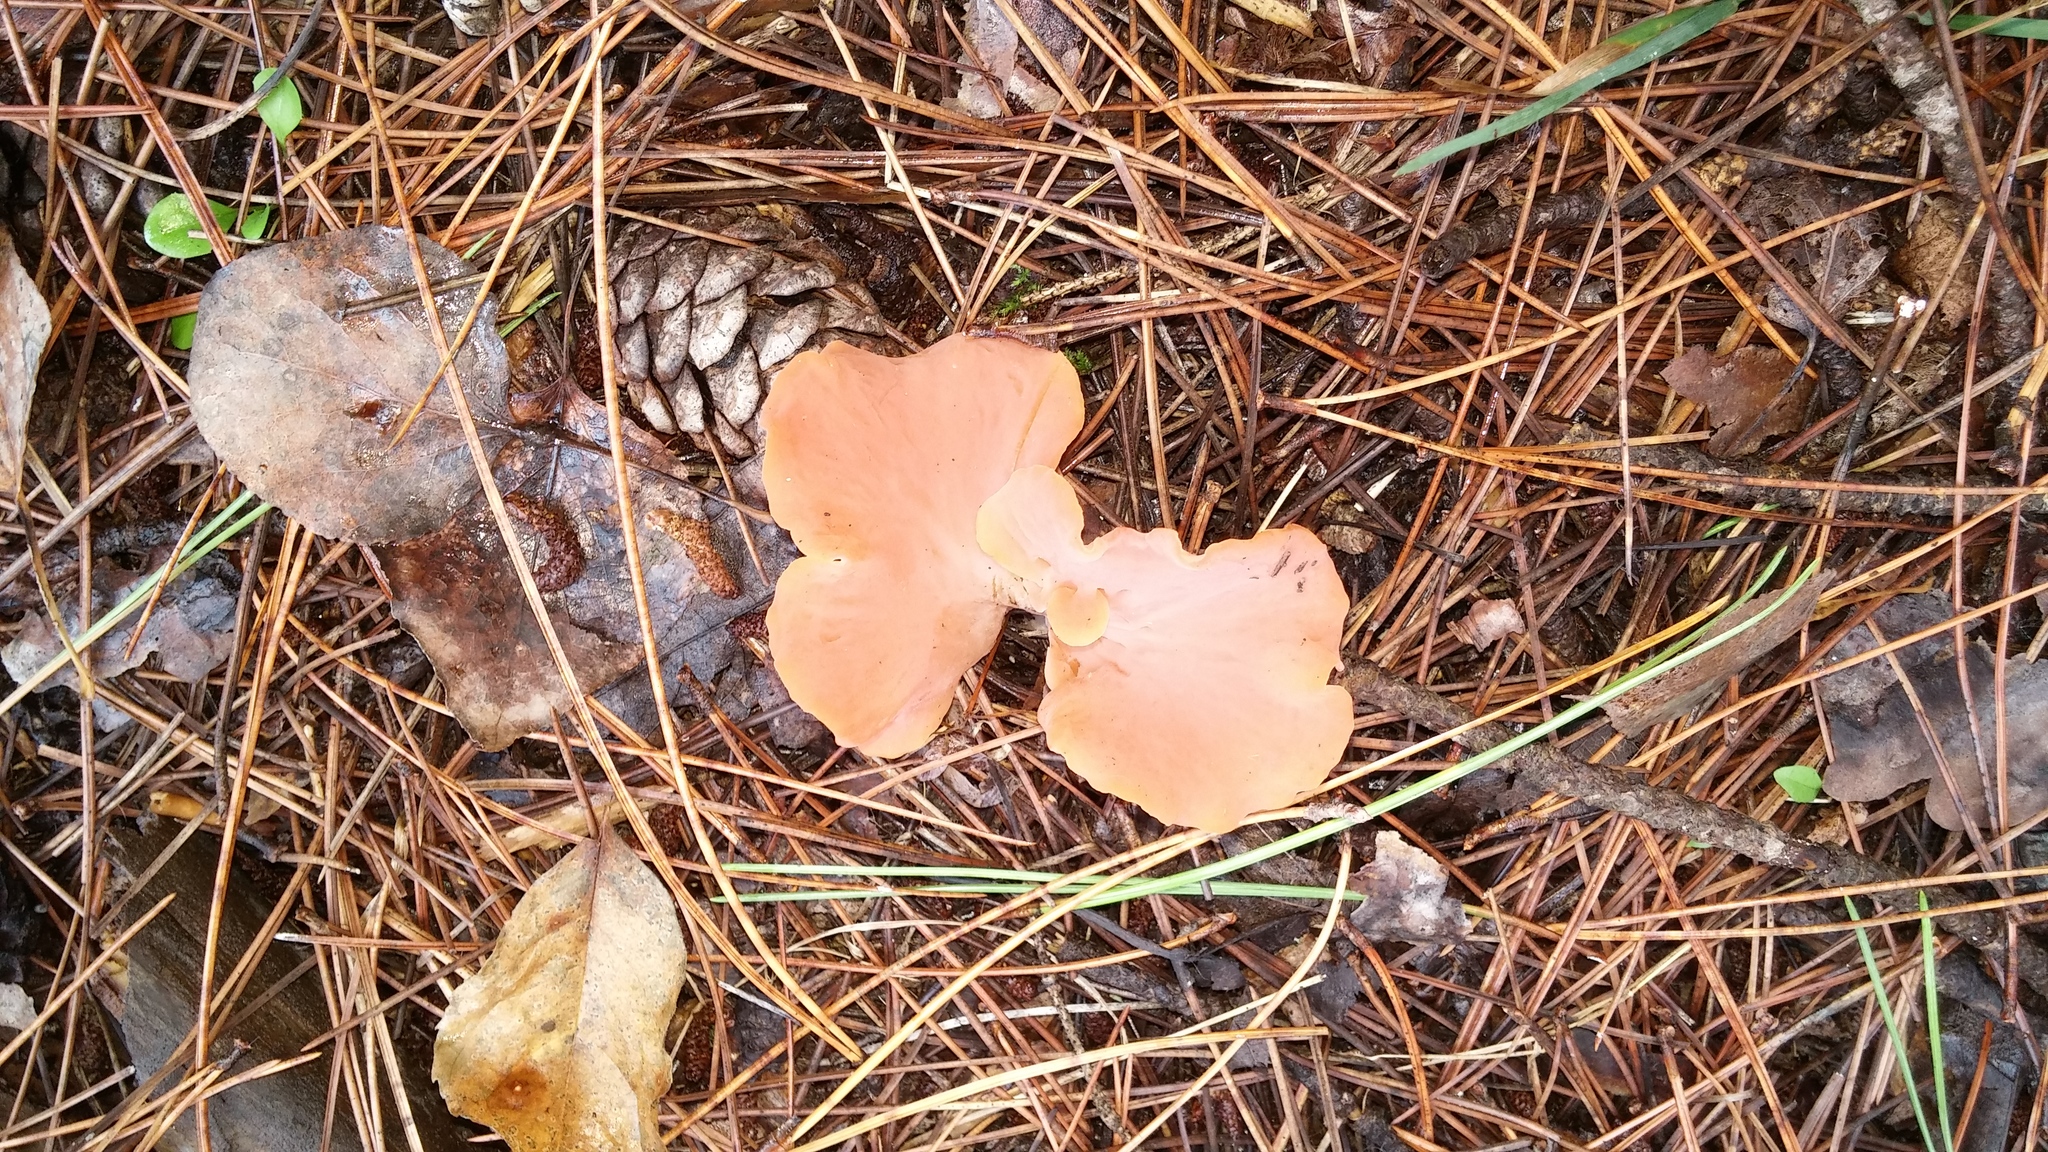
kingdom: Fungi
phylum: Basidiomycota
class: Agaricomycetes
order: Auriculariales
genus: Guepinia
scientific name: Guepinia helvelloides
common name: Salmon salad
